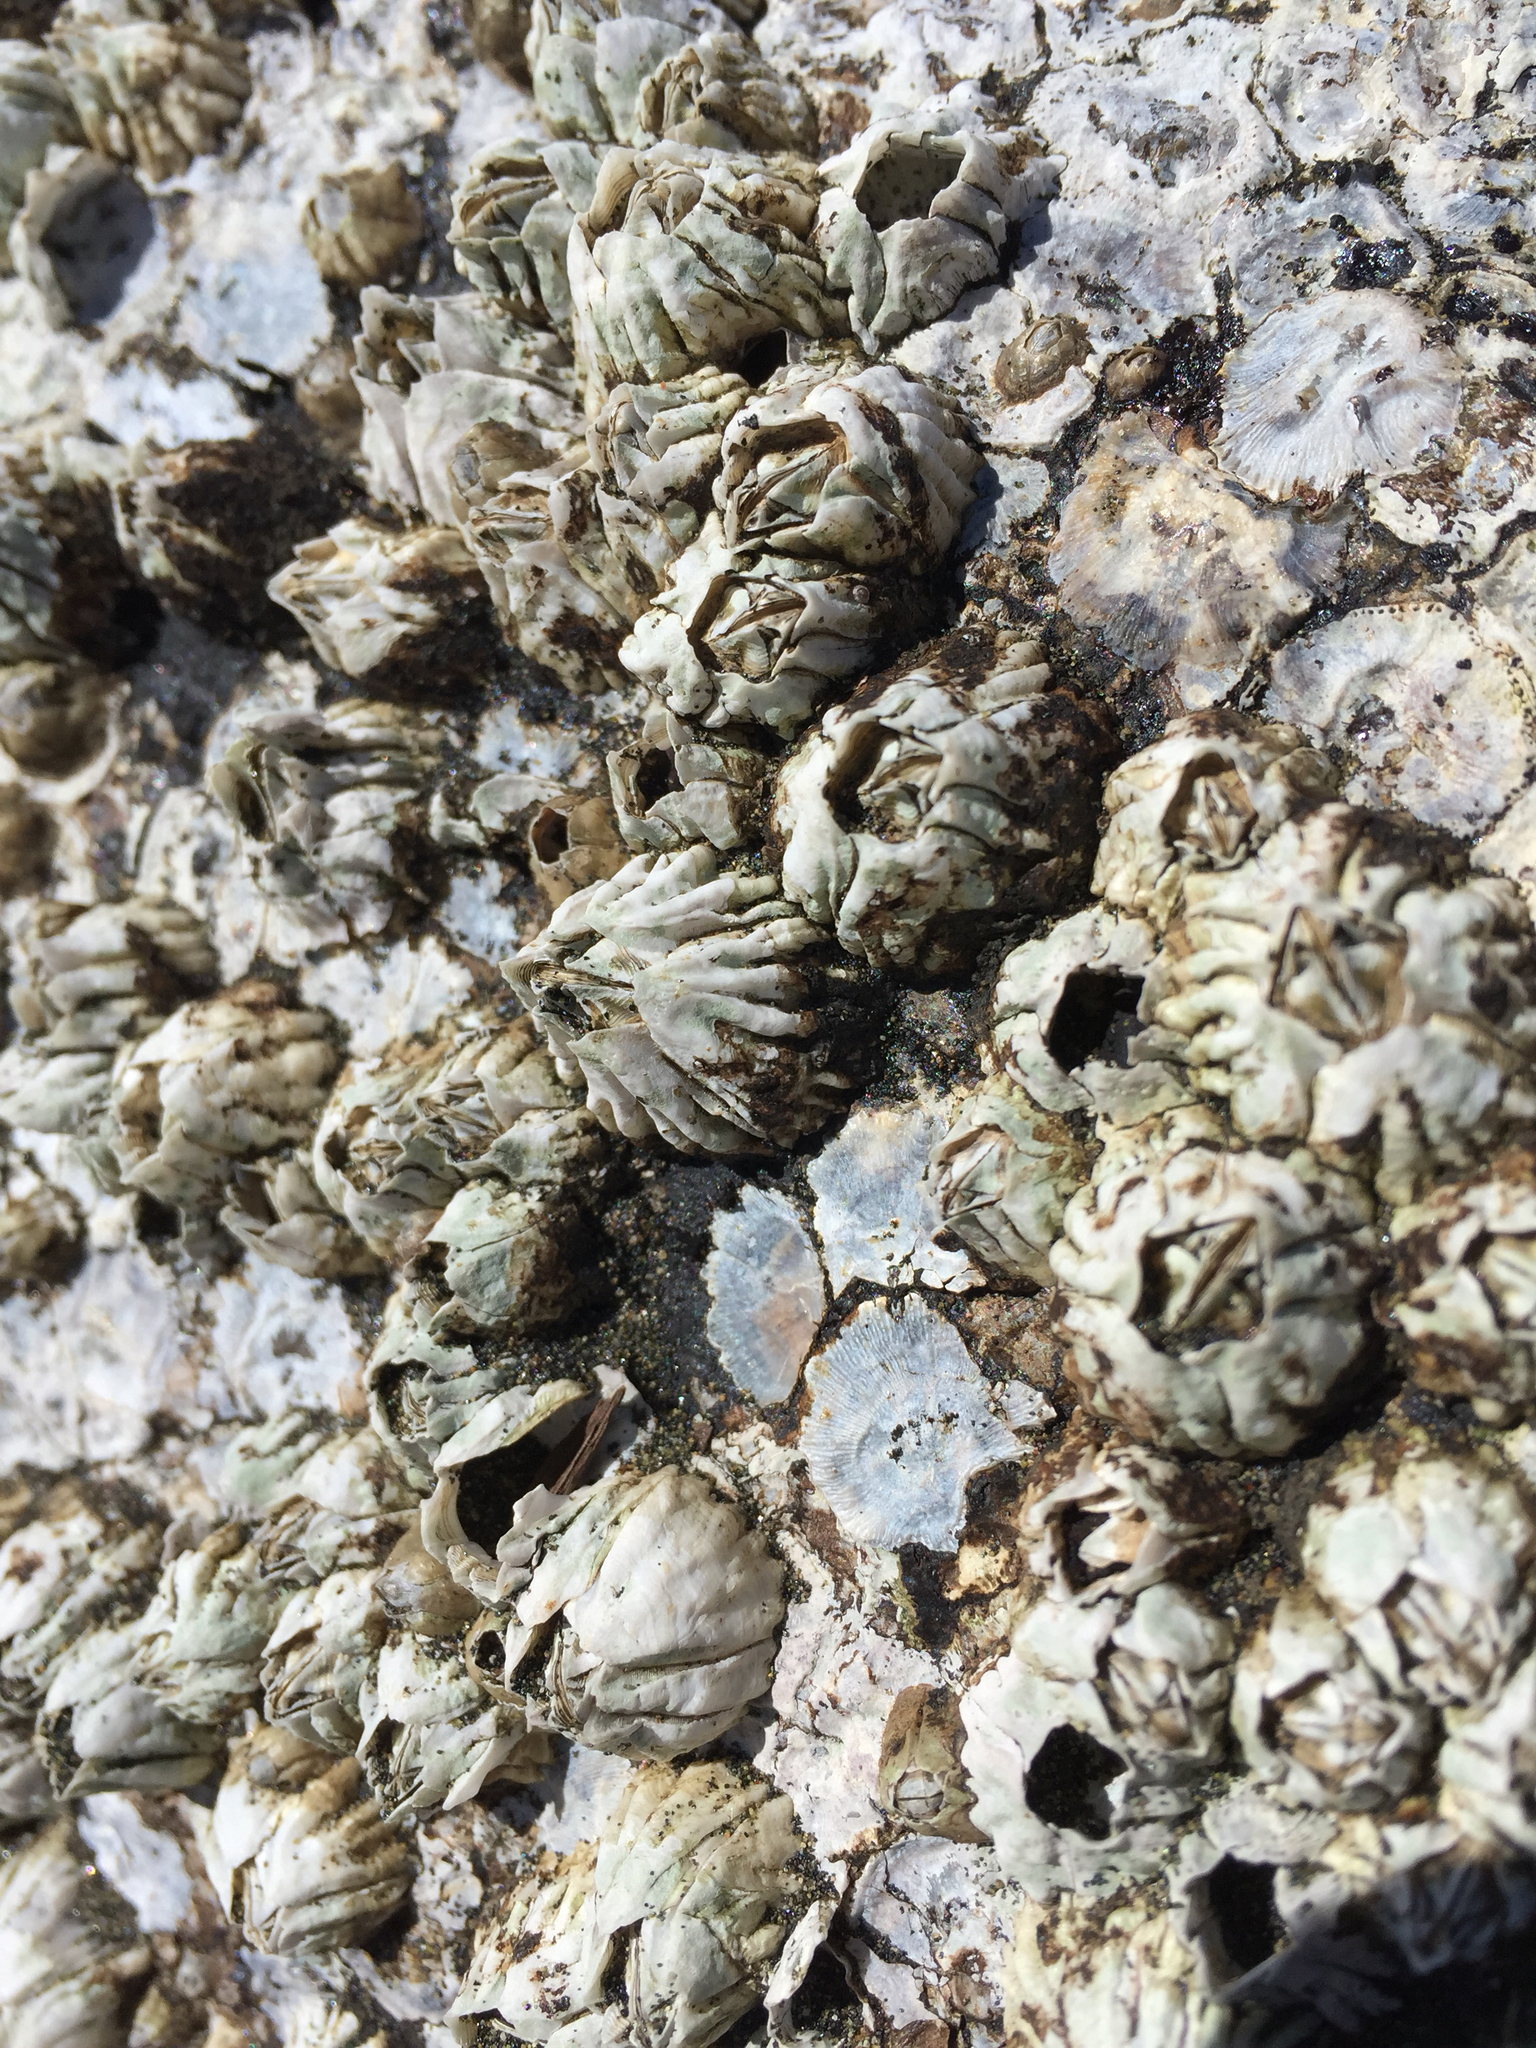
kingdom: Animalia
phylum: Arthropoda
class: Maxillopoda
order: Sessilia
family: Balanidae
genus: Balanus
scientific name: Balanus glandula
